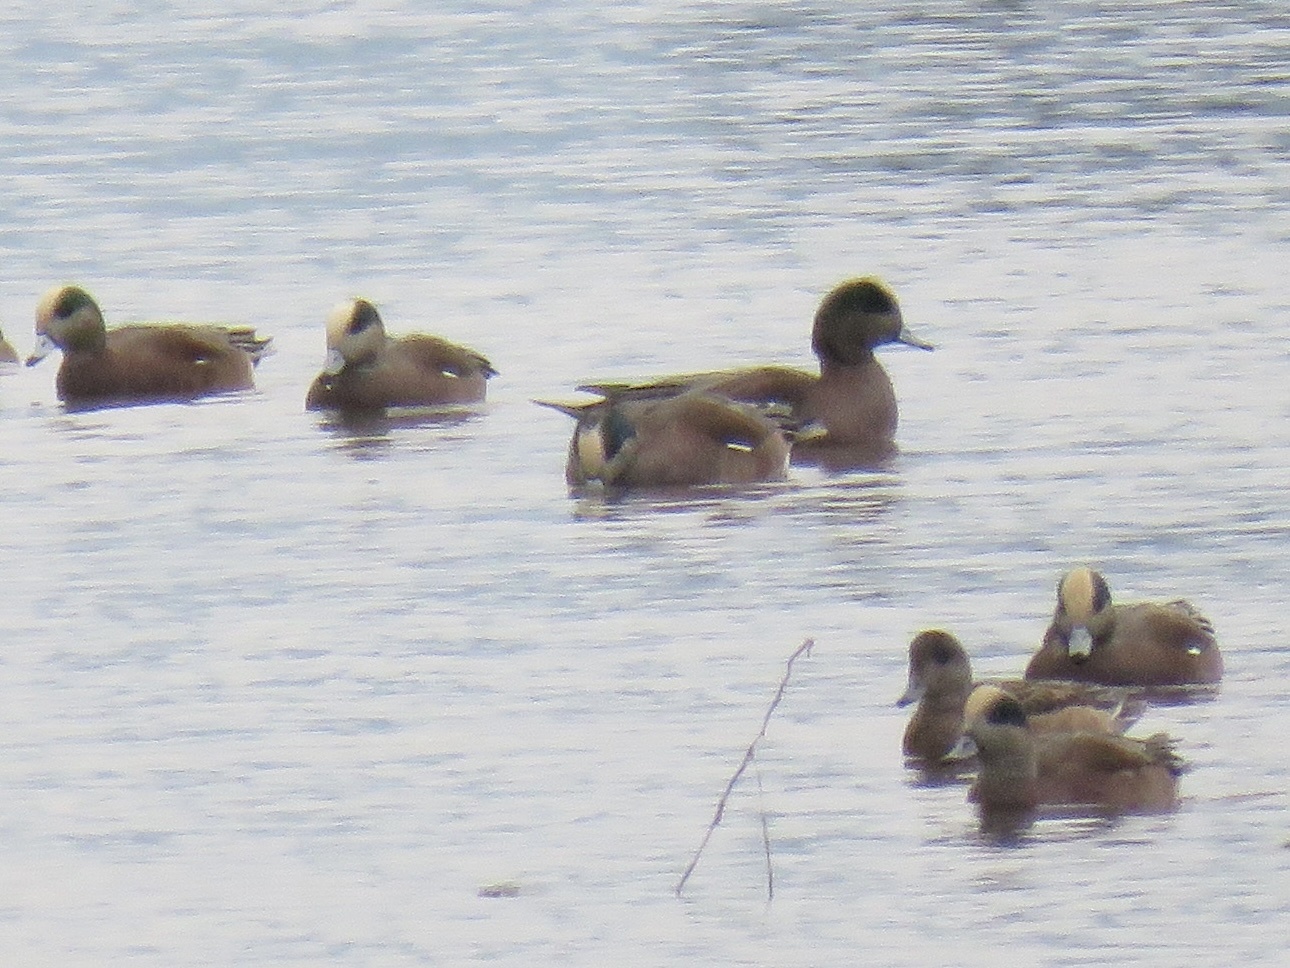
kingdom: Animalia
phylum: Chordata
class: Aves
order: Anseriformes
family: Anatidae
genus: Mareca
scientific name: Mareca americana
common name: American wigeon
